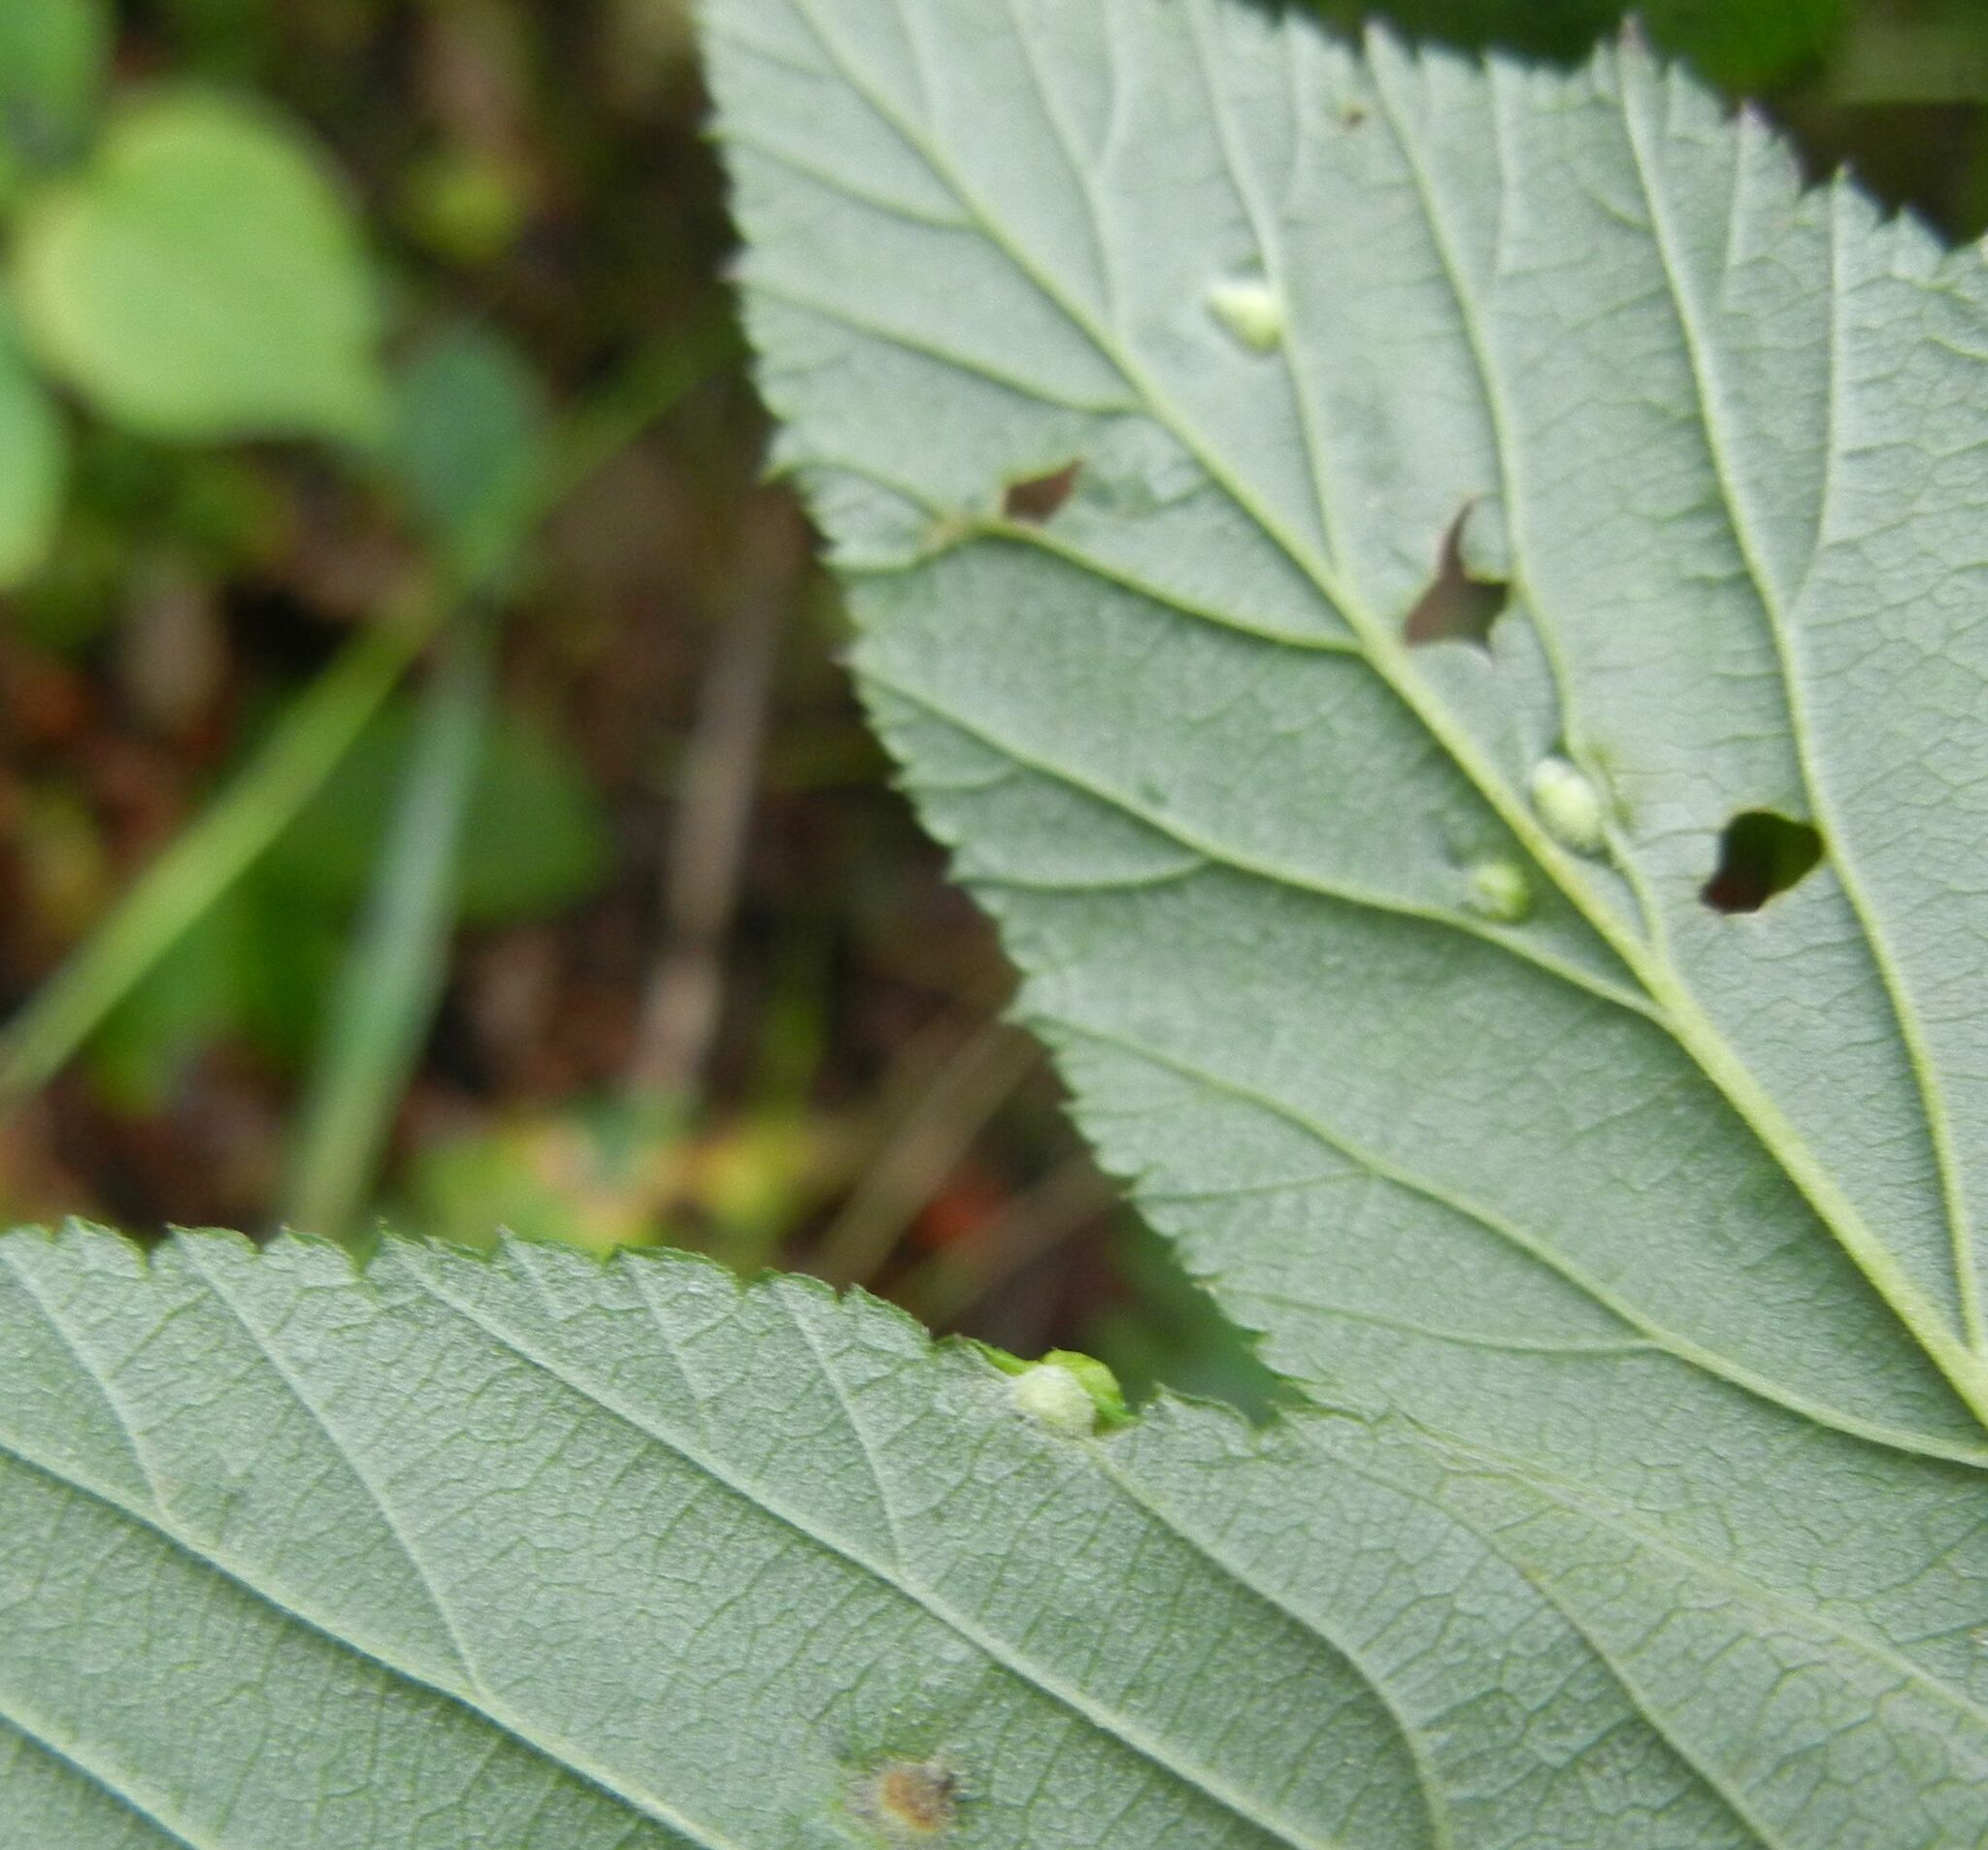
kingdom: Animalia
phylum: Arthropoda
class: Insecta
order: Diptera
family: Cecidomyiidae
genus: Dasineura
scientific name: Dasineura ulmaria
